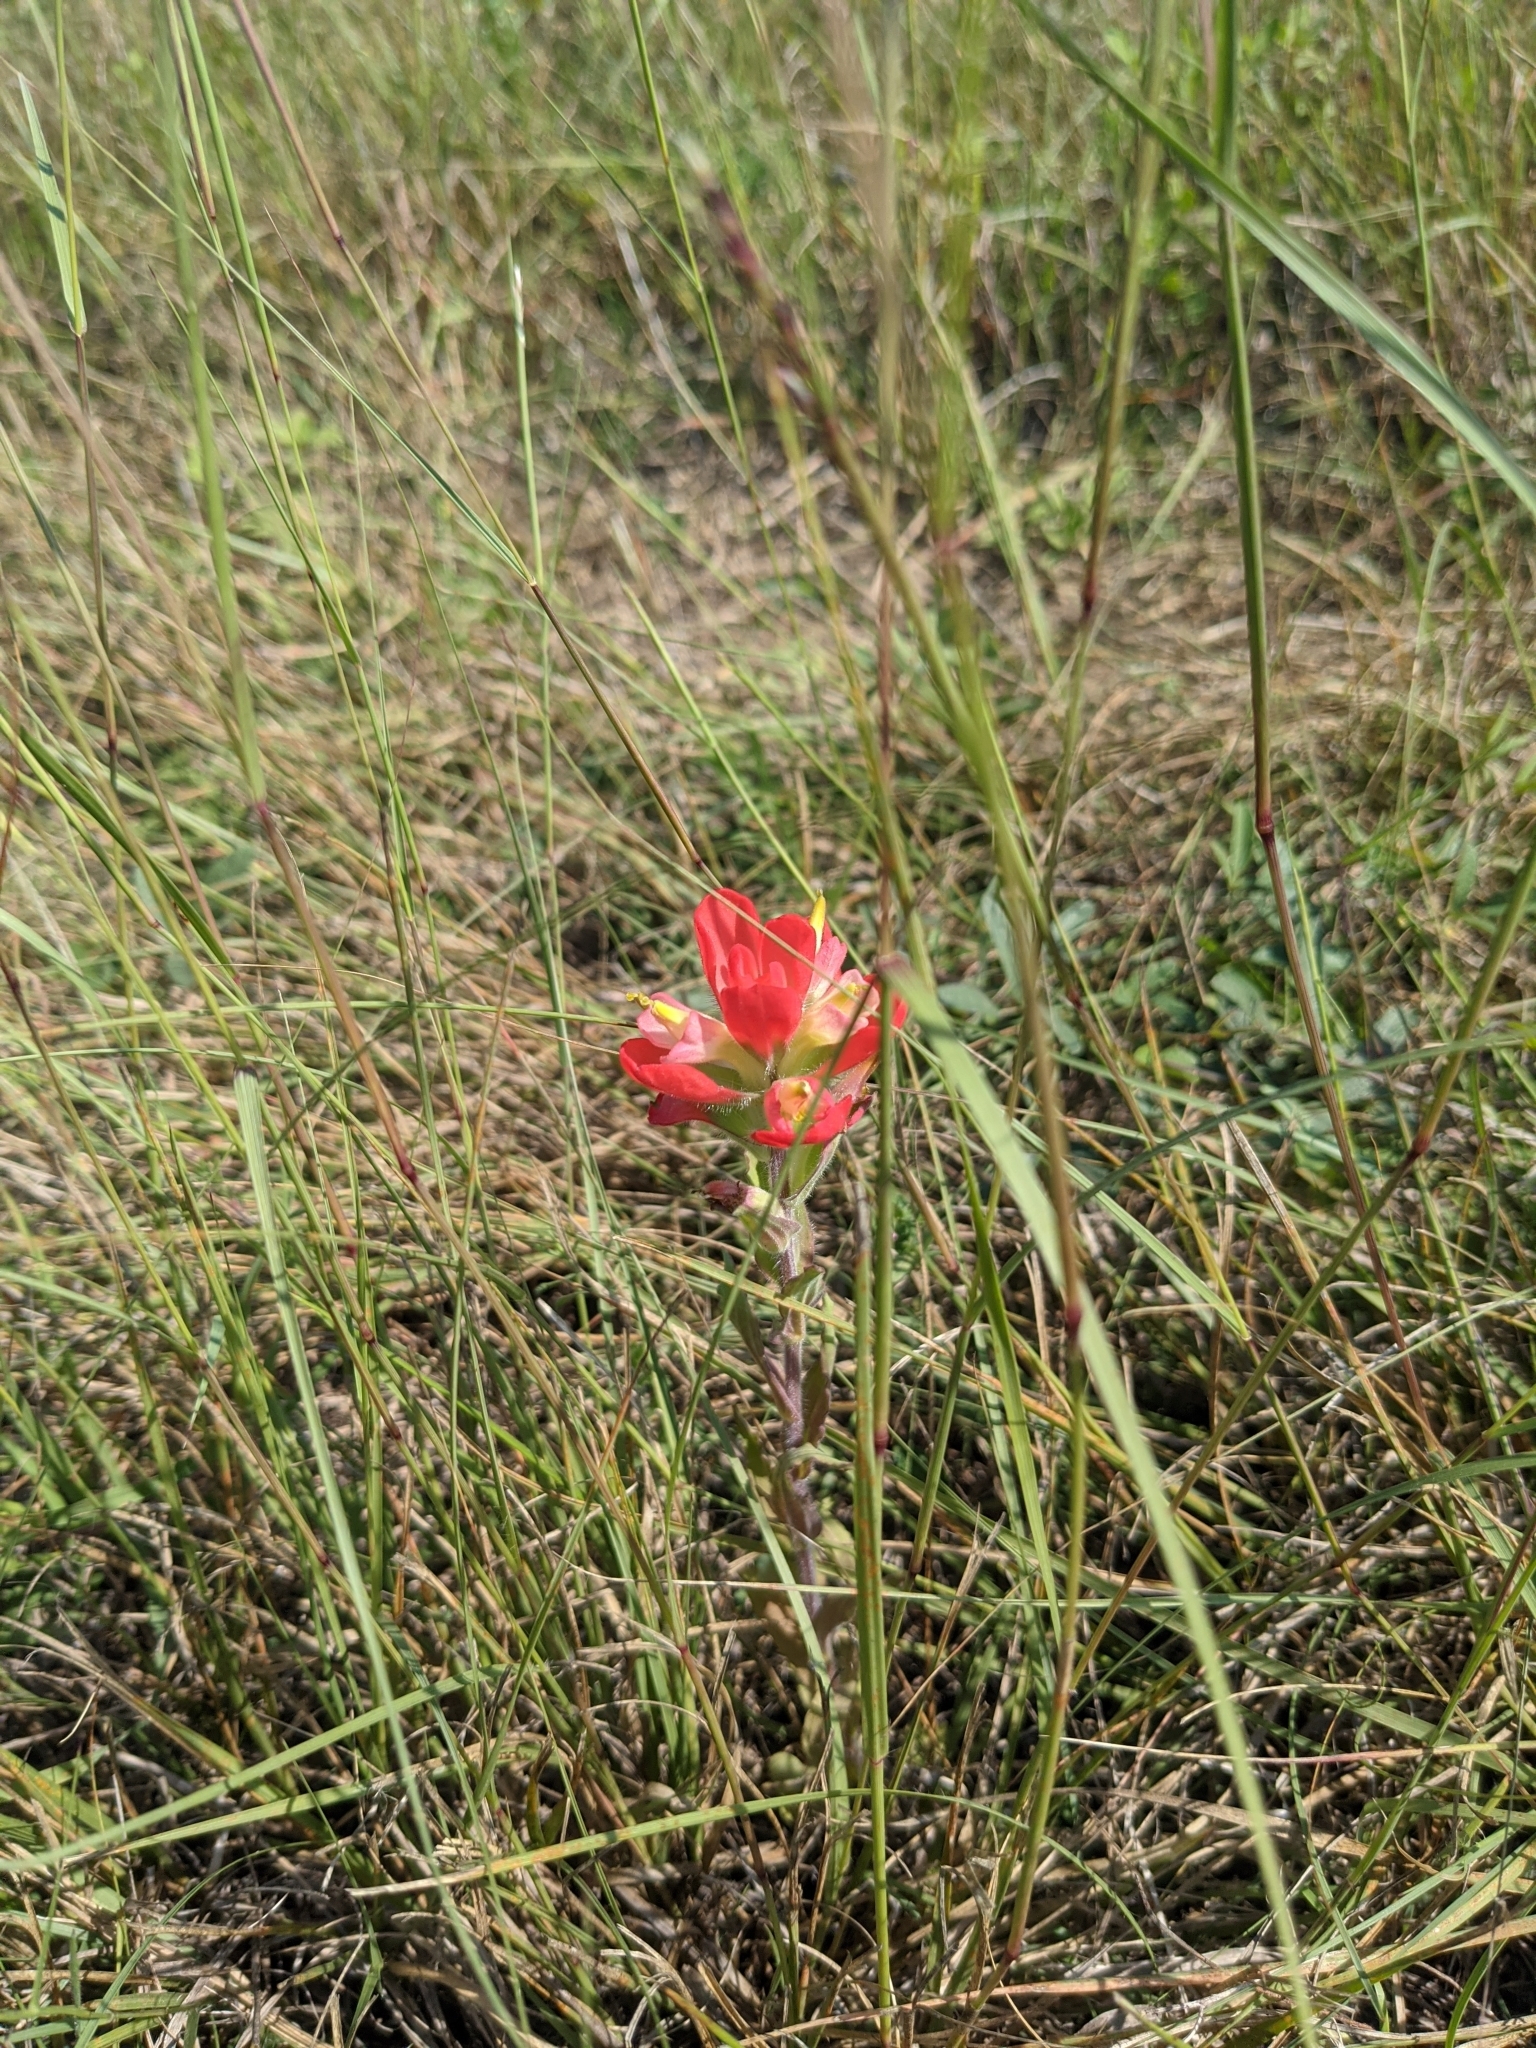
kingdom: Plantae
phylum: Tracheophyta
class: Magnoliopsida
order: Lamiales
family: Orobanchaceae
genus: Castilleja
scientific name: Castilleja indivisa
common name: Texas paintbrush
